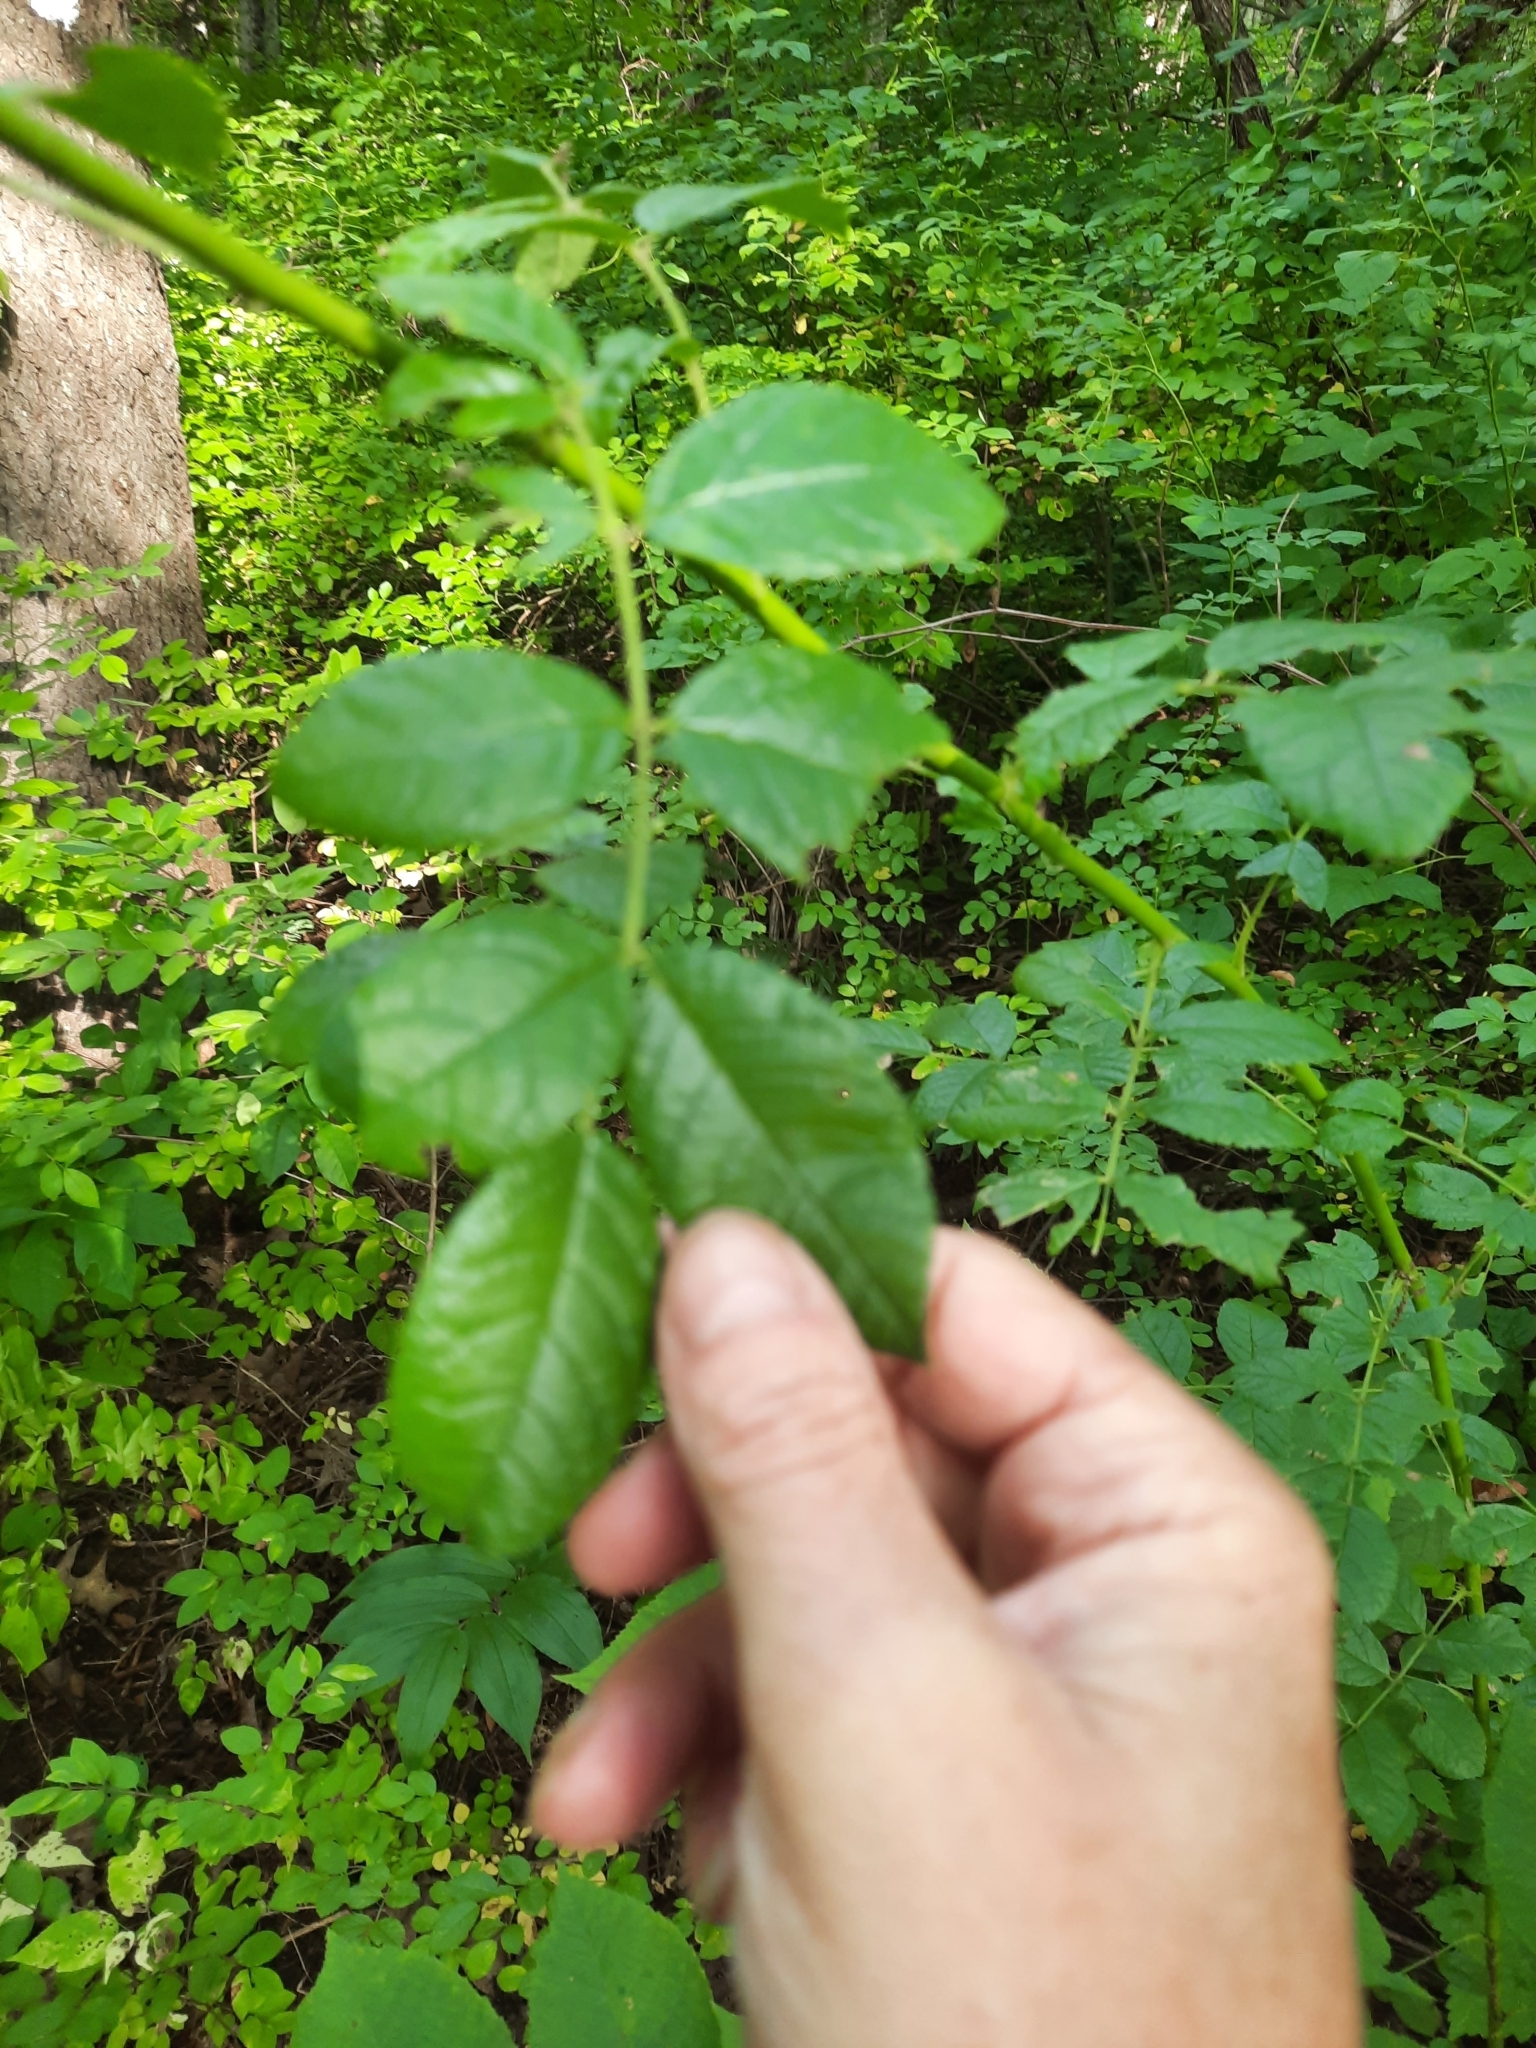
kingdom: Plantae
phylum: Tracheophyta
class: Magnoliopsida
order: Rosales
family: Rosaceae
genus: Rosa
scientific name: Rosa multiflora
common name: Multiflora rose
